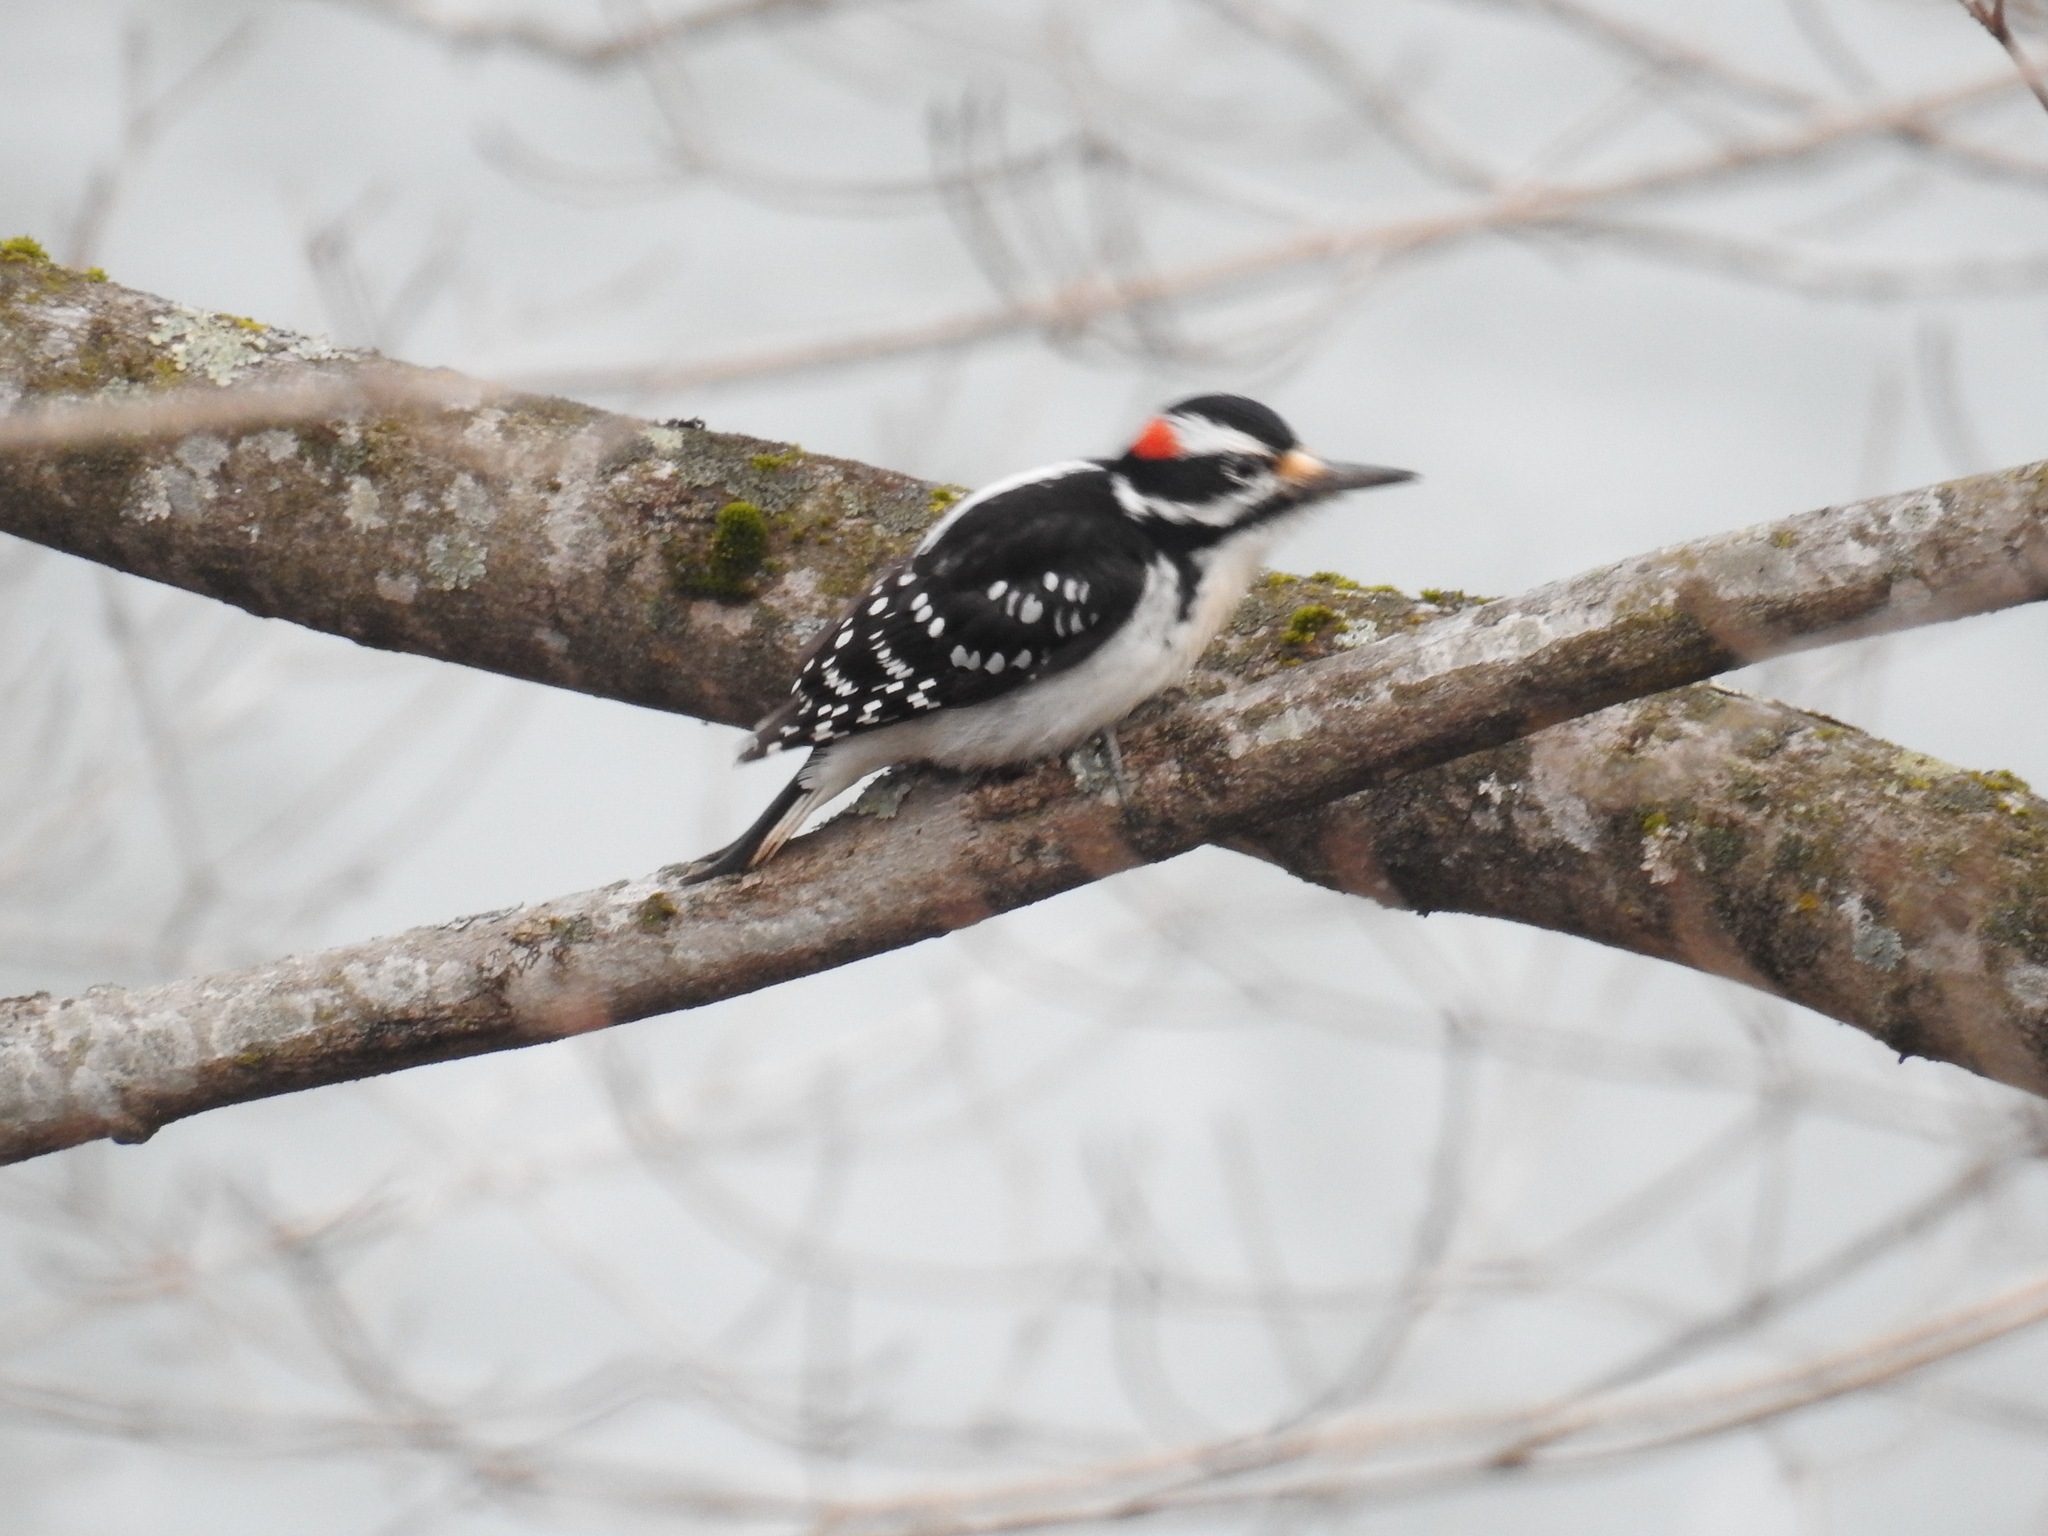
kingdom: Animalia
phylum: Chordata
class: Aves
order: Piciformes
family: Picidae
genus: Leuconotopicus
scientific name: Leuconotopicus villosus
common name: Hairy woodpecker
